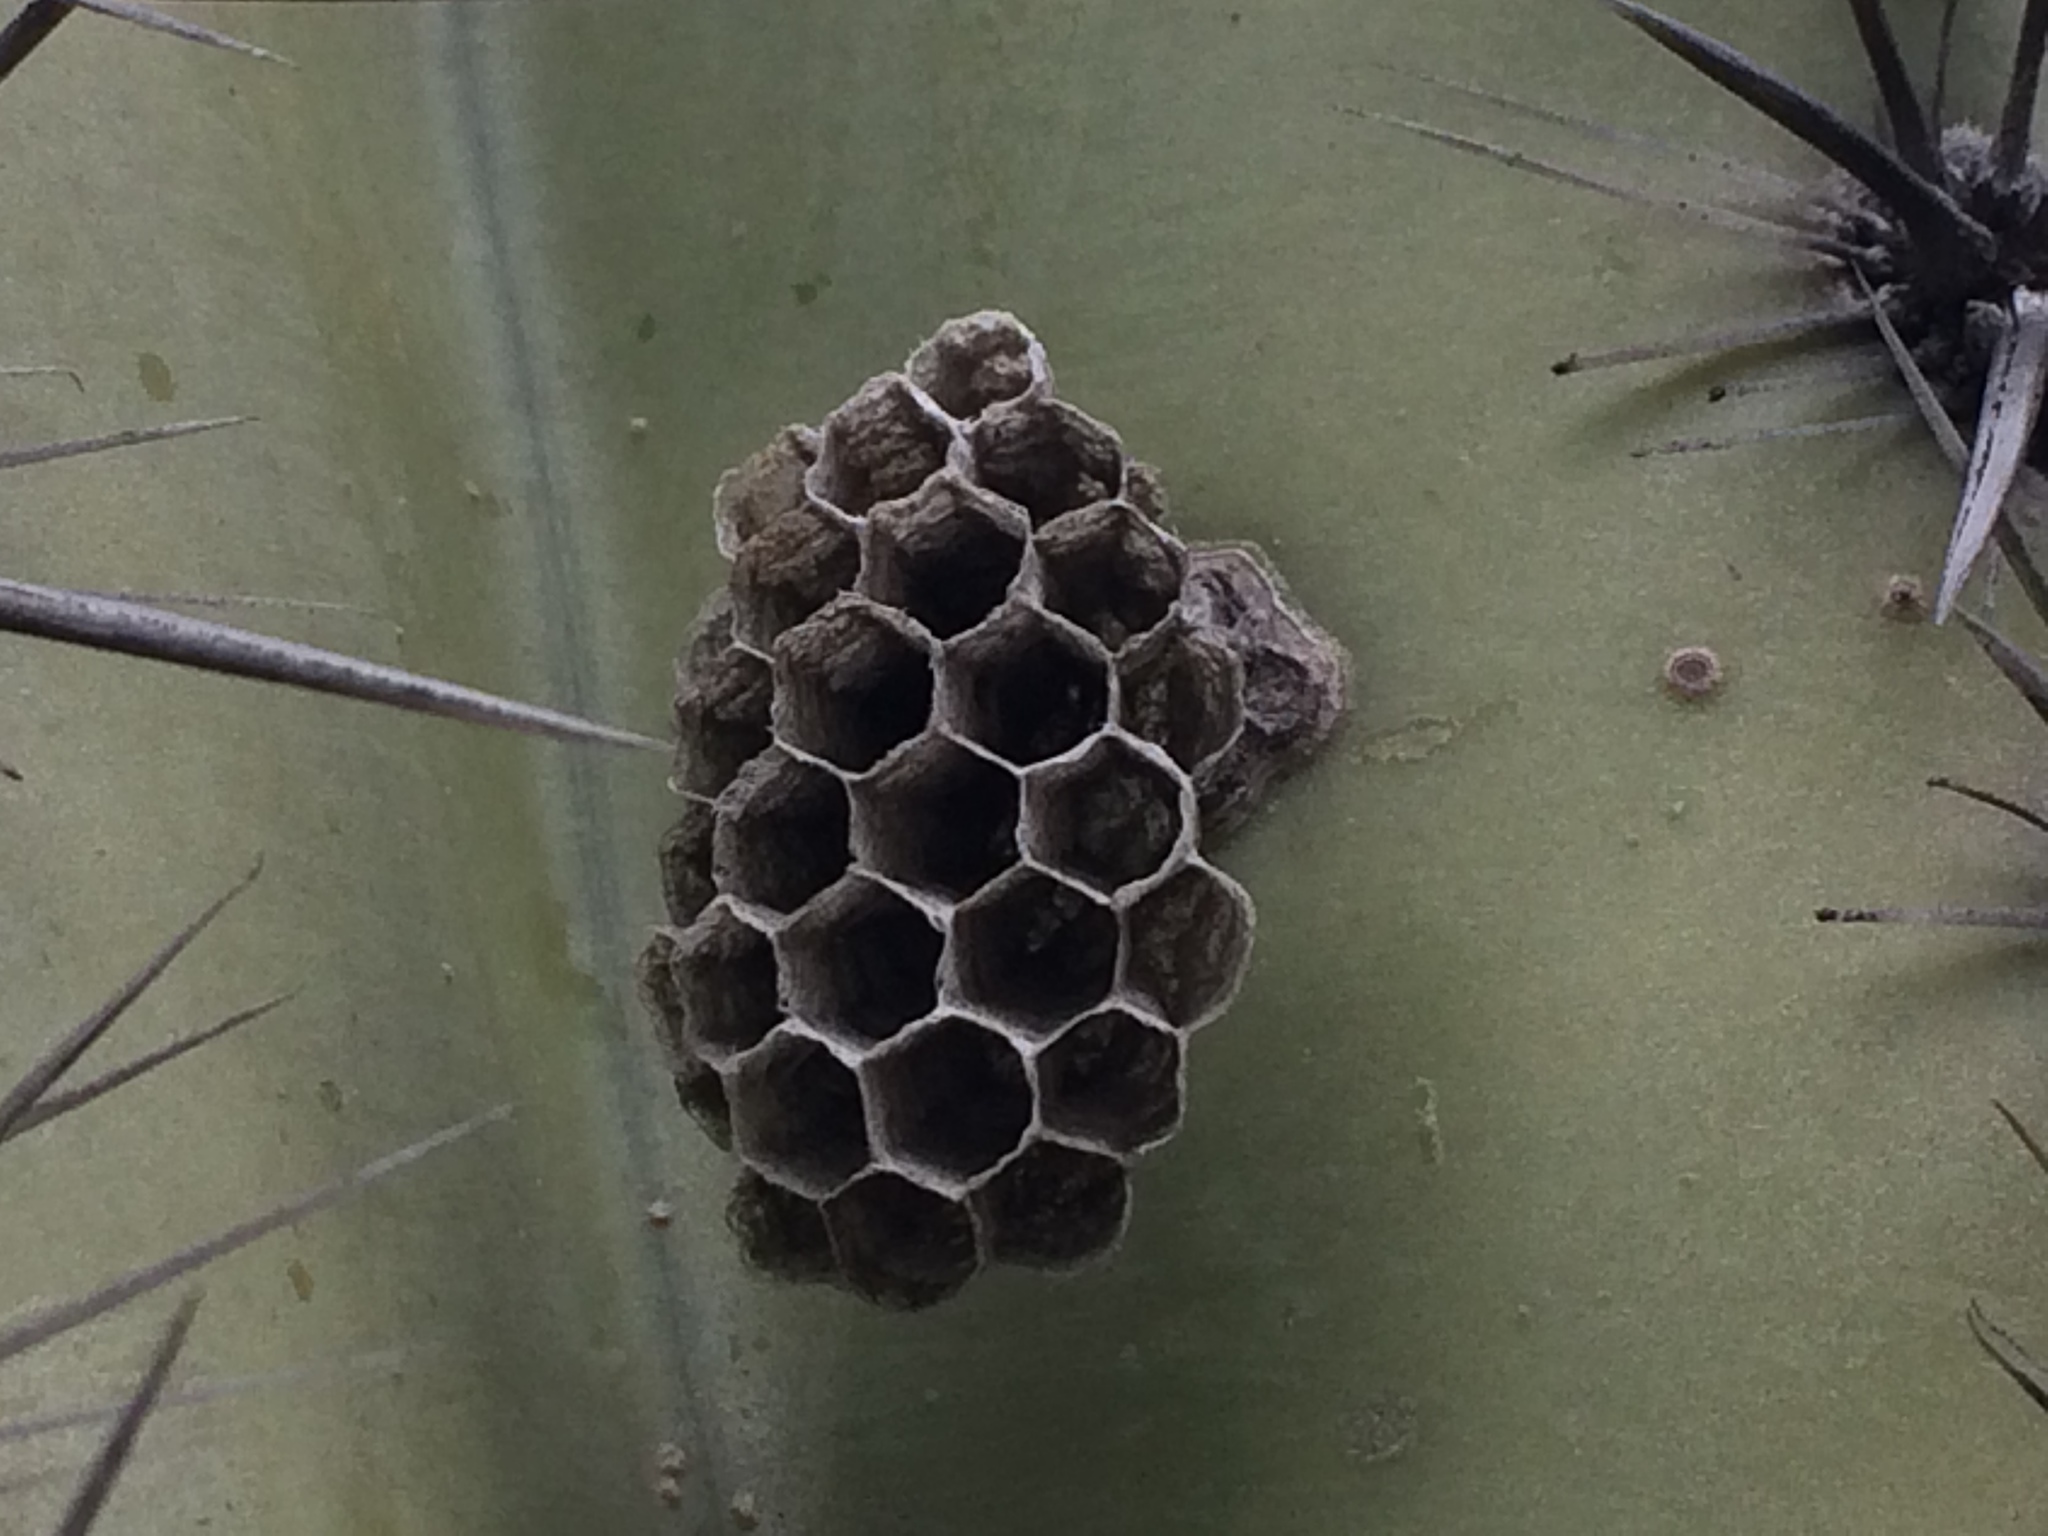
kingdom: Animalia
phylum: Arthropoda
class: Insecta
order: Hymenoptera
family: Vespidae
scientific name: Vespidae
